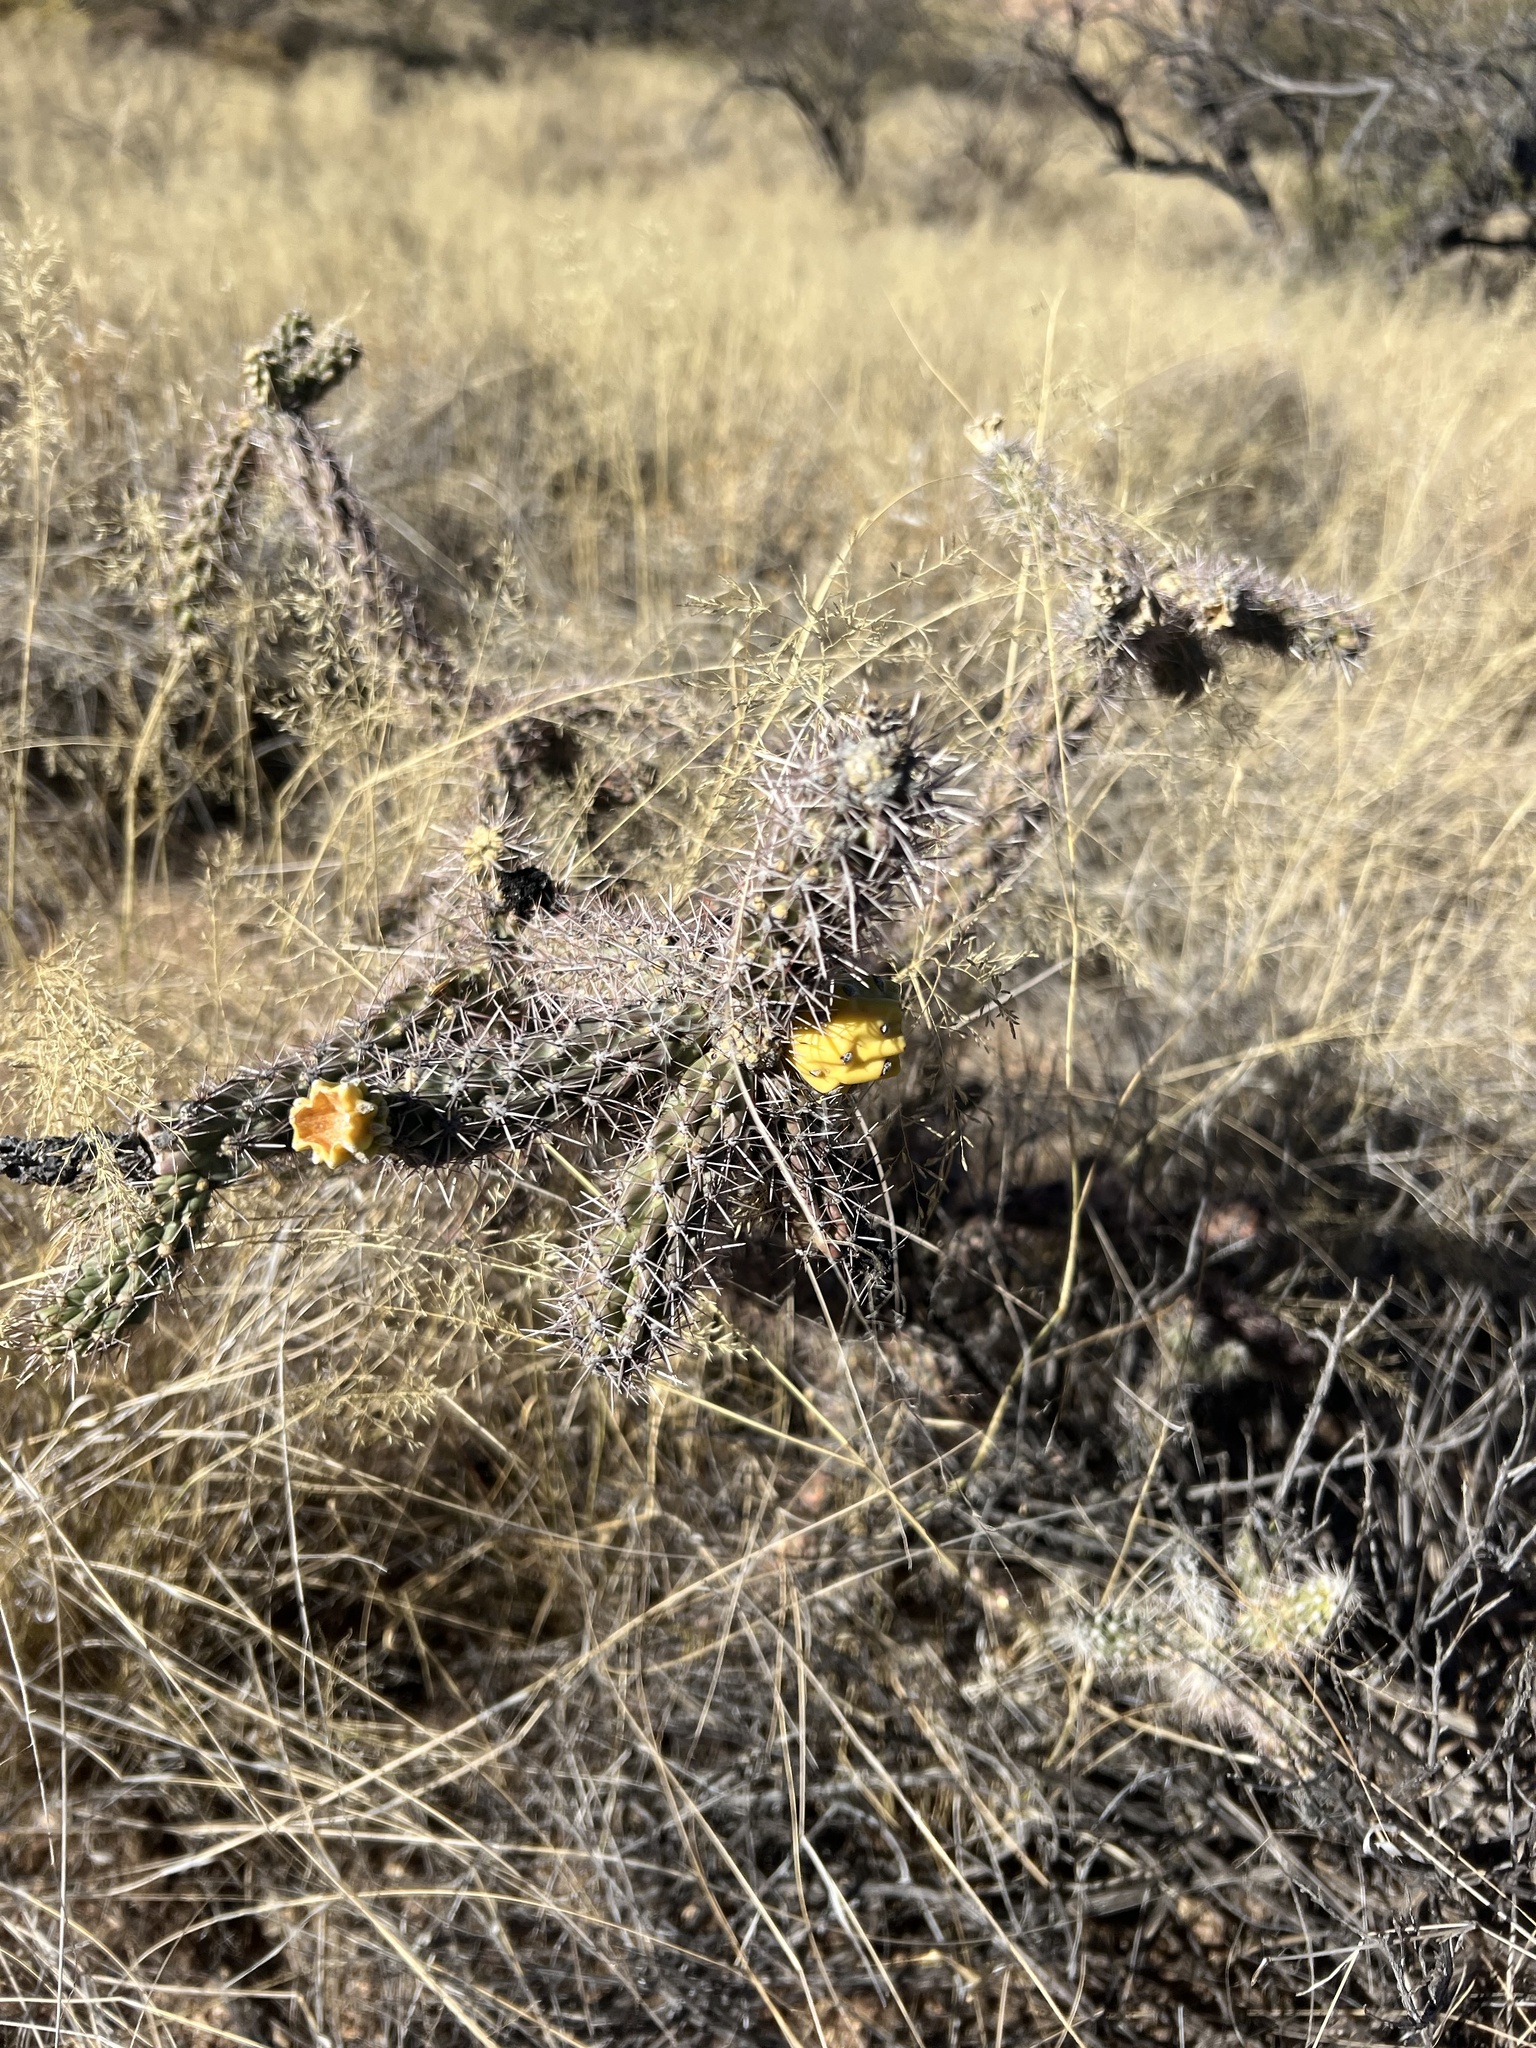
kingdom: Plantae
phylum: Tracheophyta
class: Magnoliopsida
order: Caryophyllales
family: Cactaceae
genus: Cylindropuntia
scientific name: Cylindropuntia imbricata
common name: Candelabrum cactus
